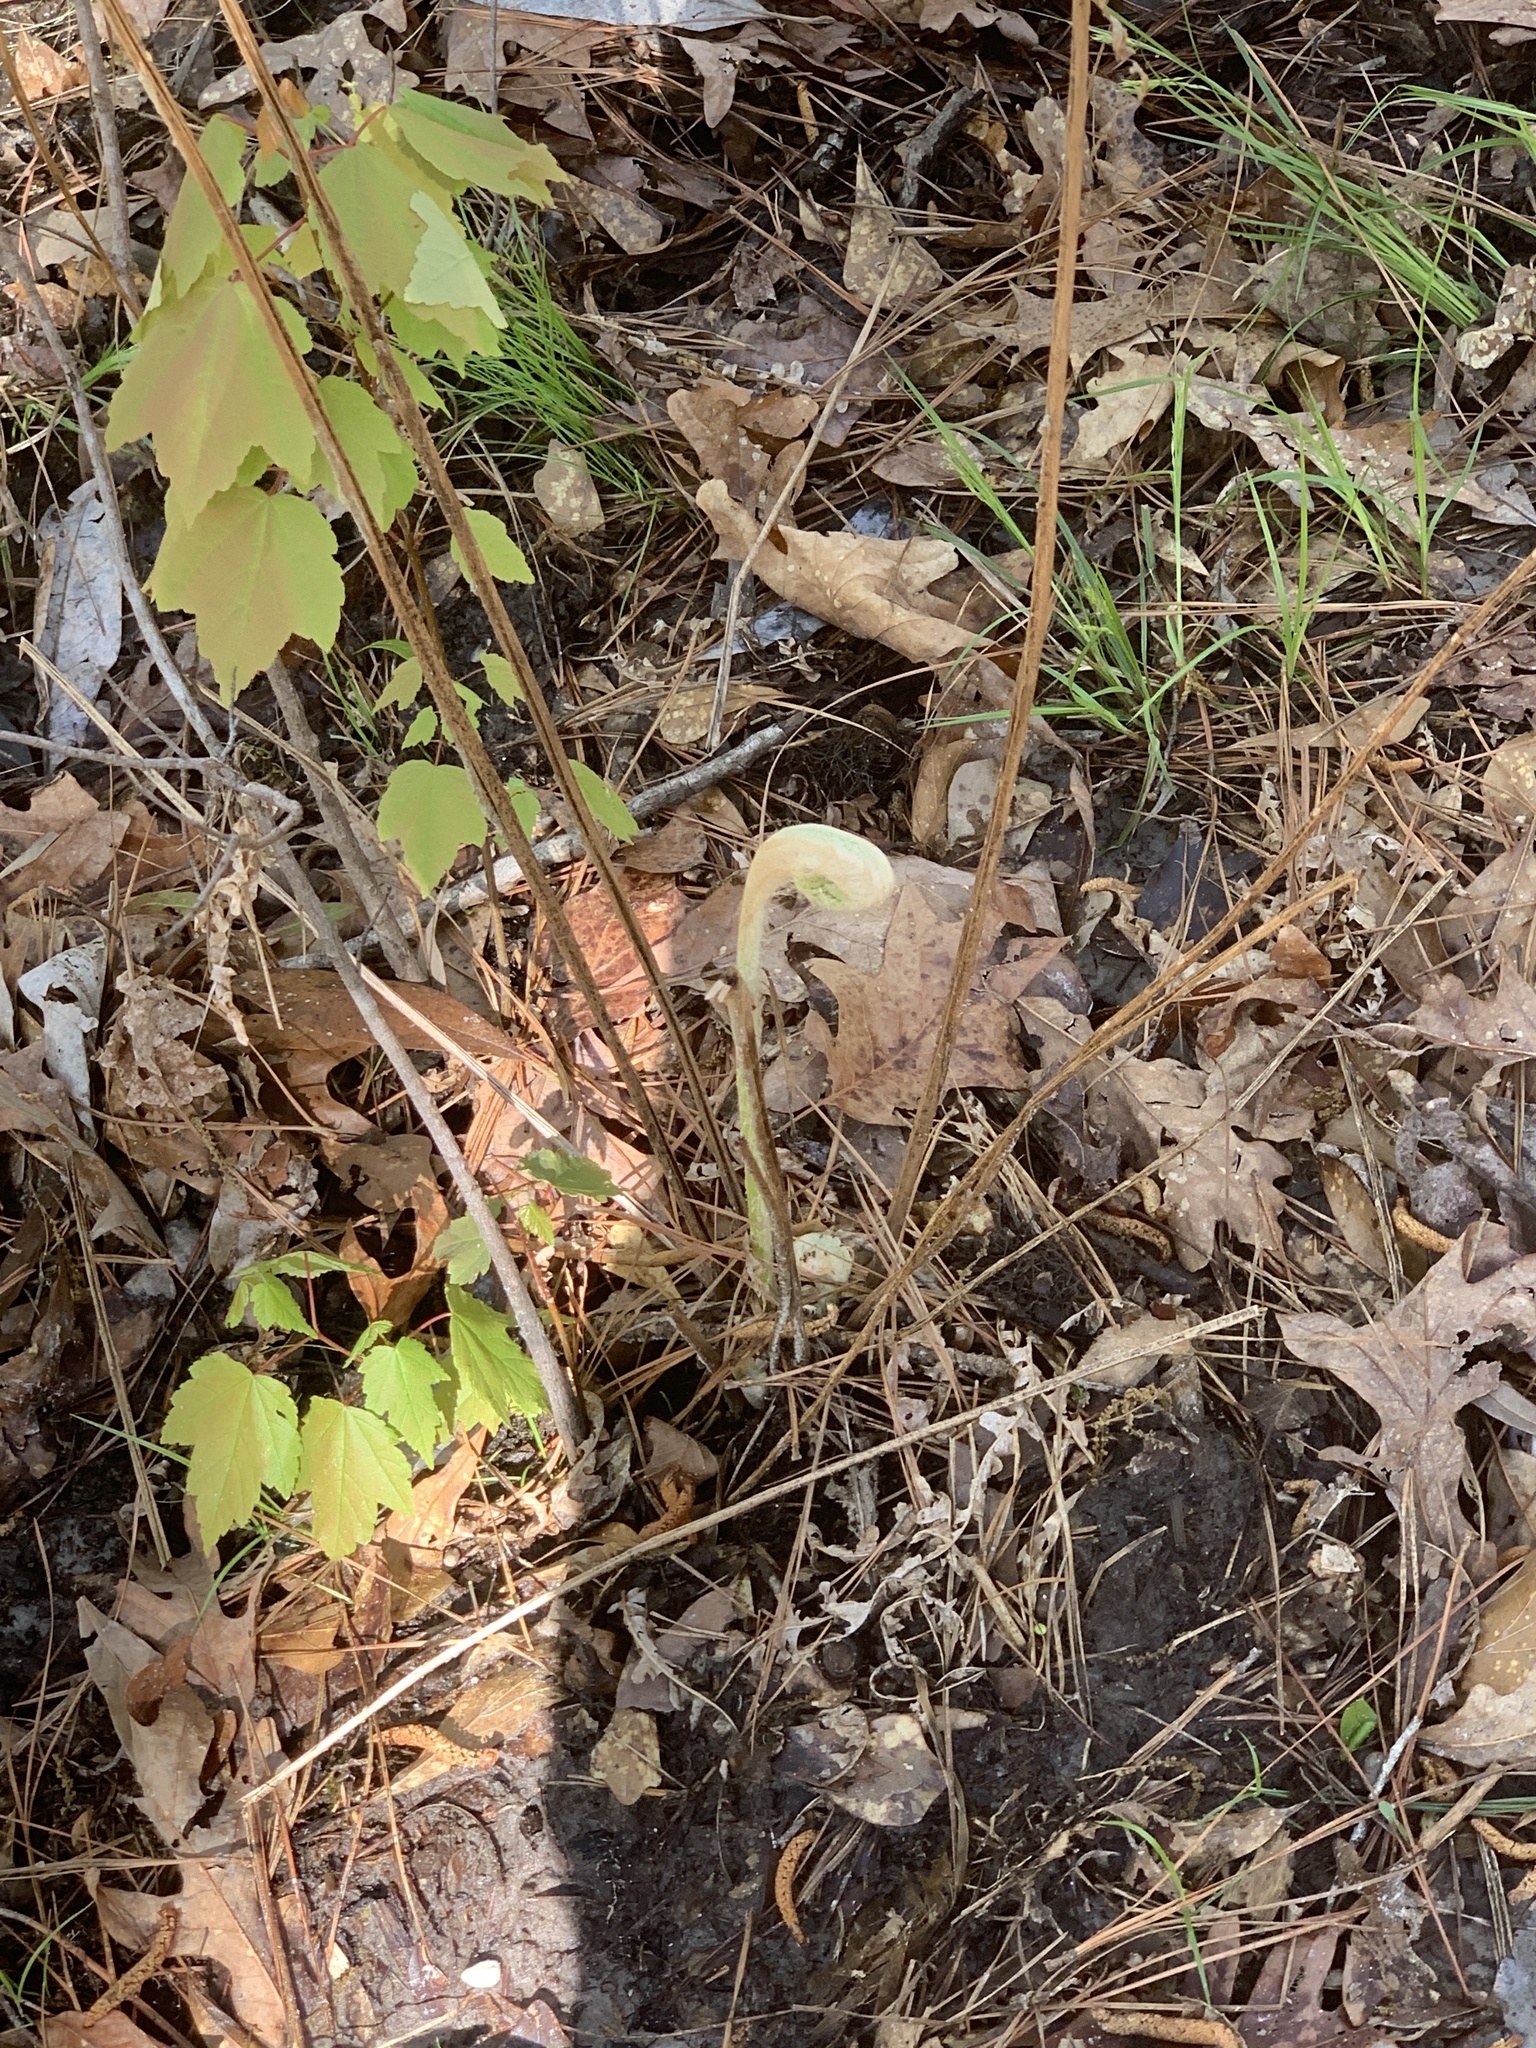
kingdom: Plantae
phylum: Tracheophyta
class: Polypodiopsida
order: Osmundales
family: Osmundaceae
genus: Osmundastrum
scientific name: Osmundastrum cinnamomeum
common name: Cinnamon fern
